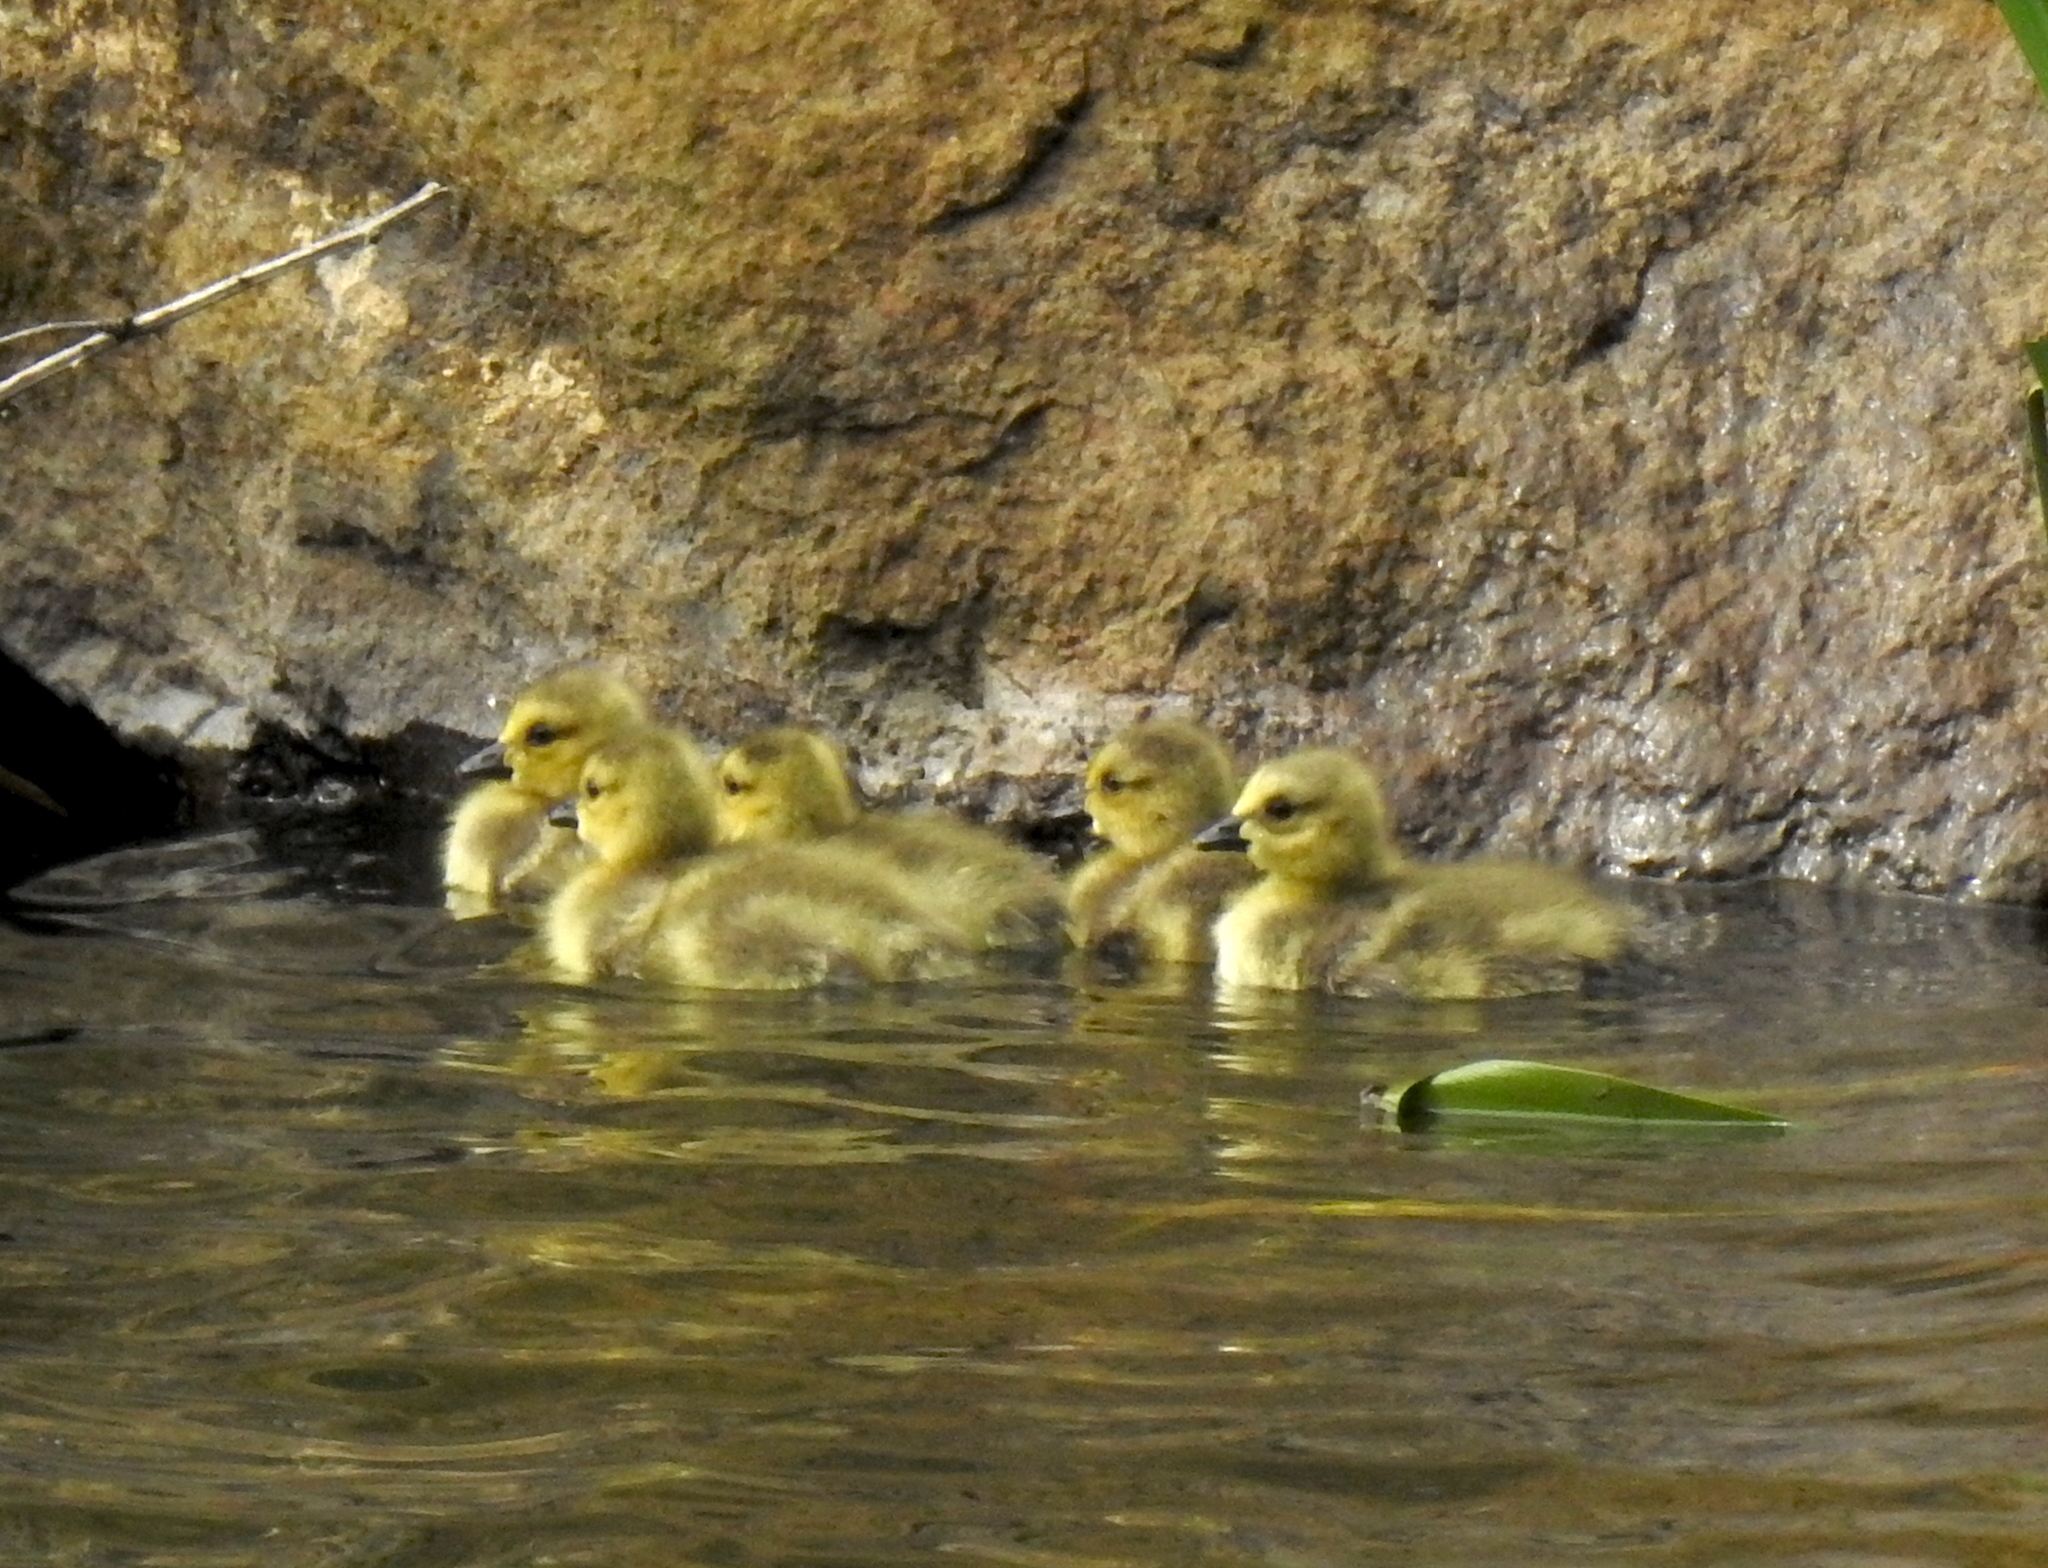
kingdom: Animalia
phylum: Chordata
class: Aves
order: Anseriformes
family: Anatidae
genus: Branta
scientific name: Branta canadensis
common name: Canada goose
